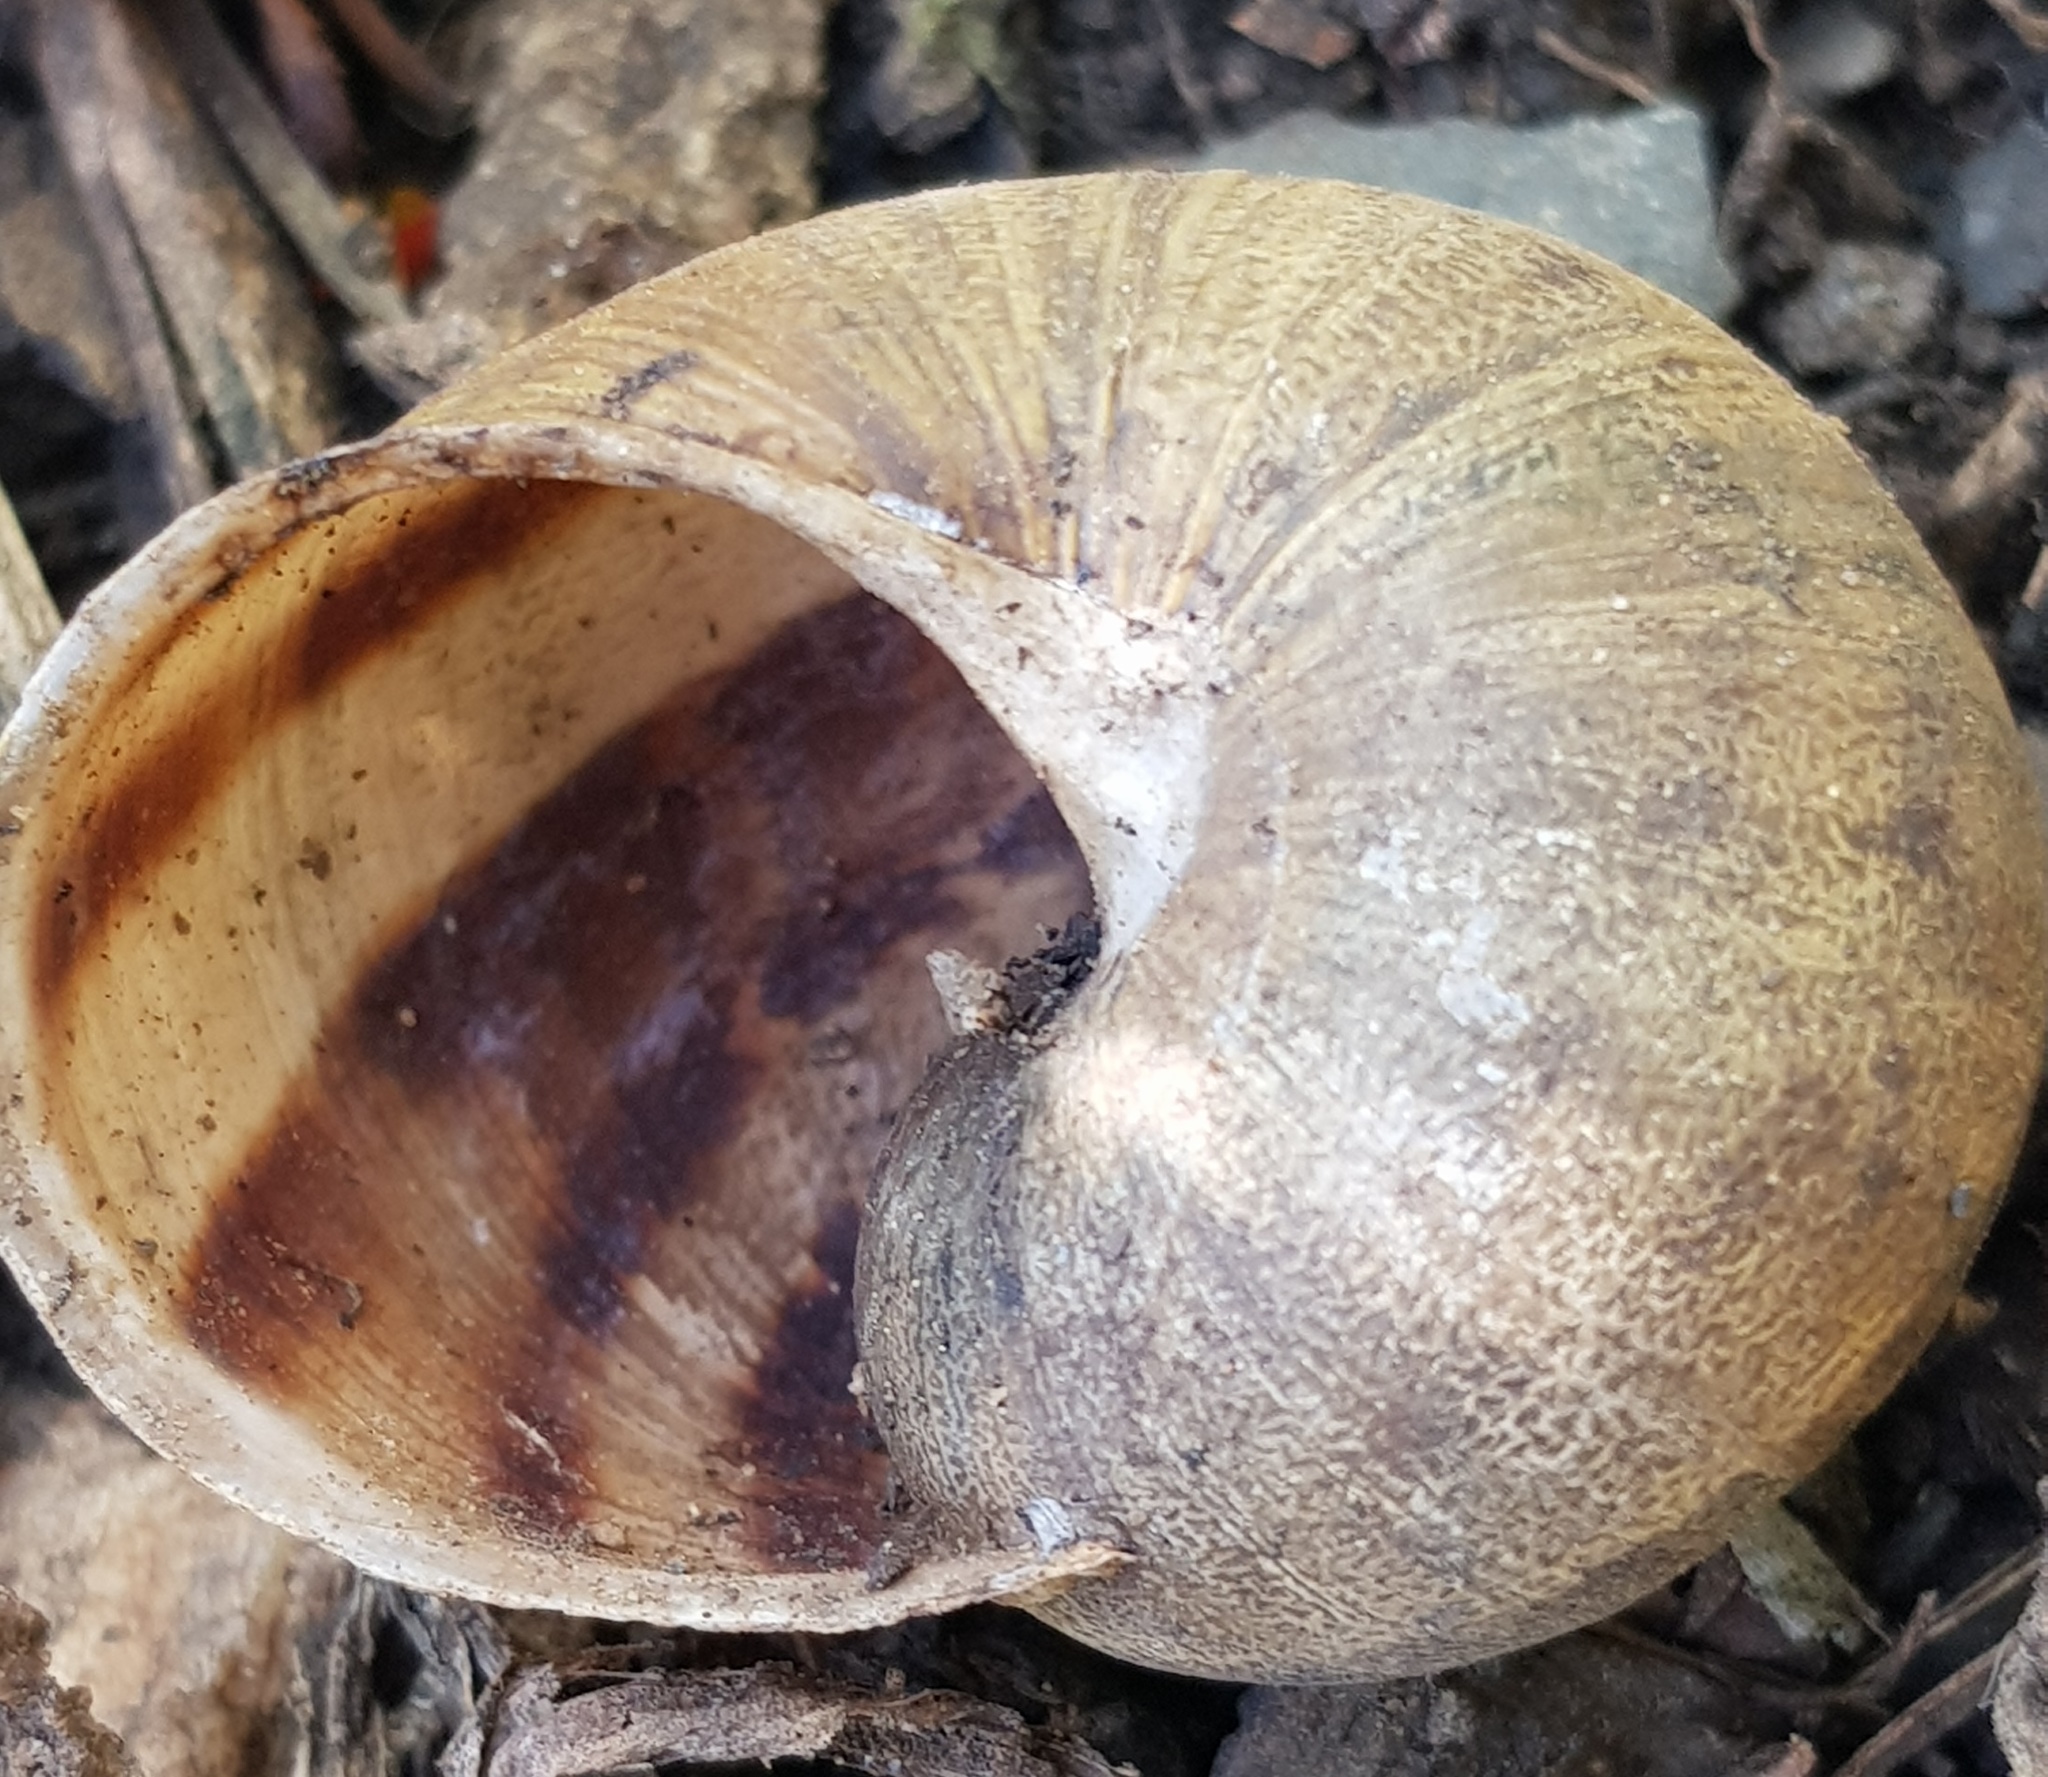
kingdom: Animalia
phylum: Mollusca
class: Gastropoda
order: Stylommatophora
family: Helicidae
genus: Cornu
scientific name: Cornu aspersum
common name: Brown garden snail
